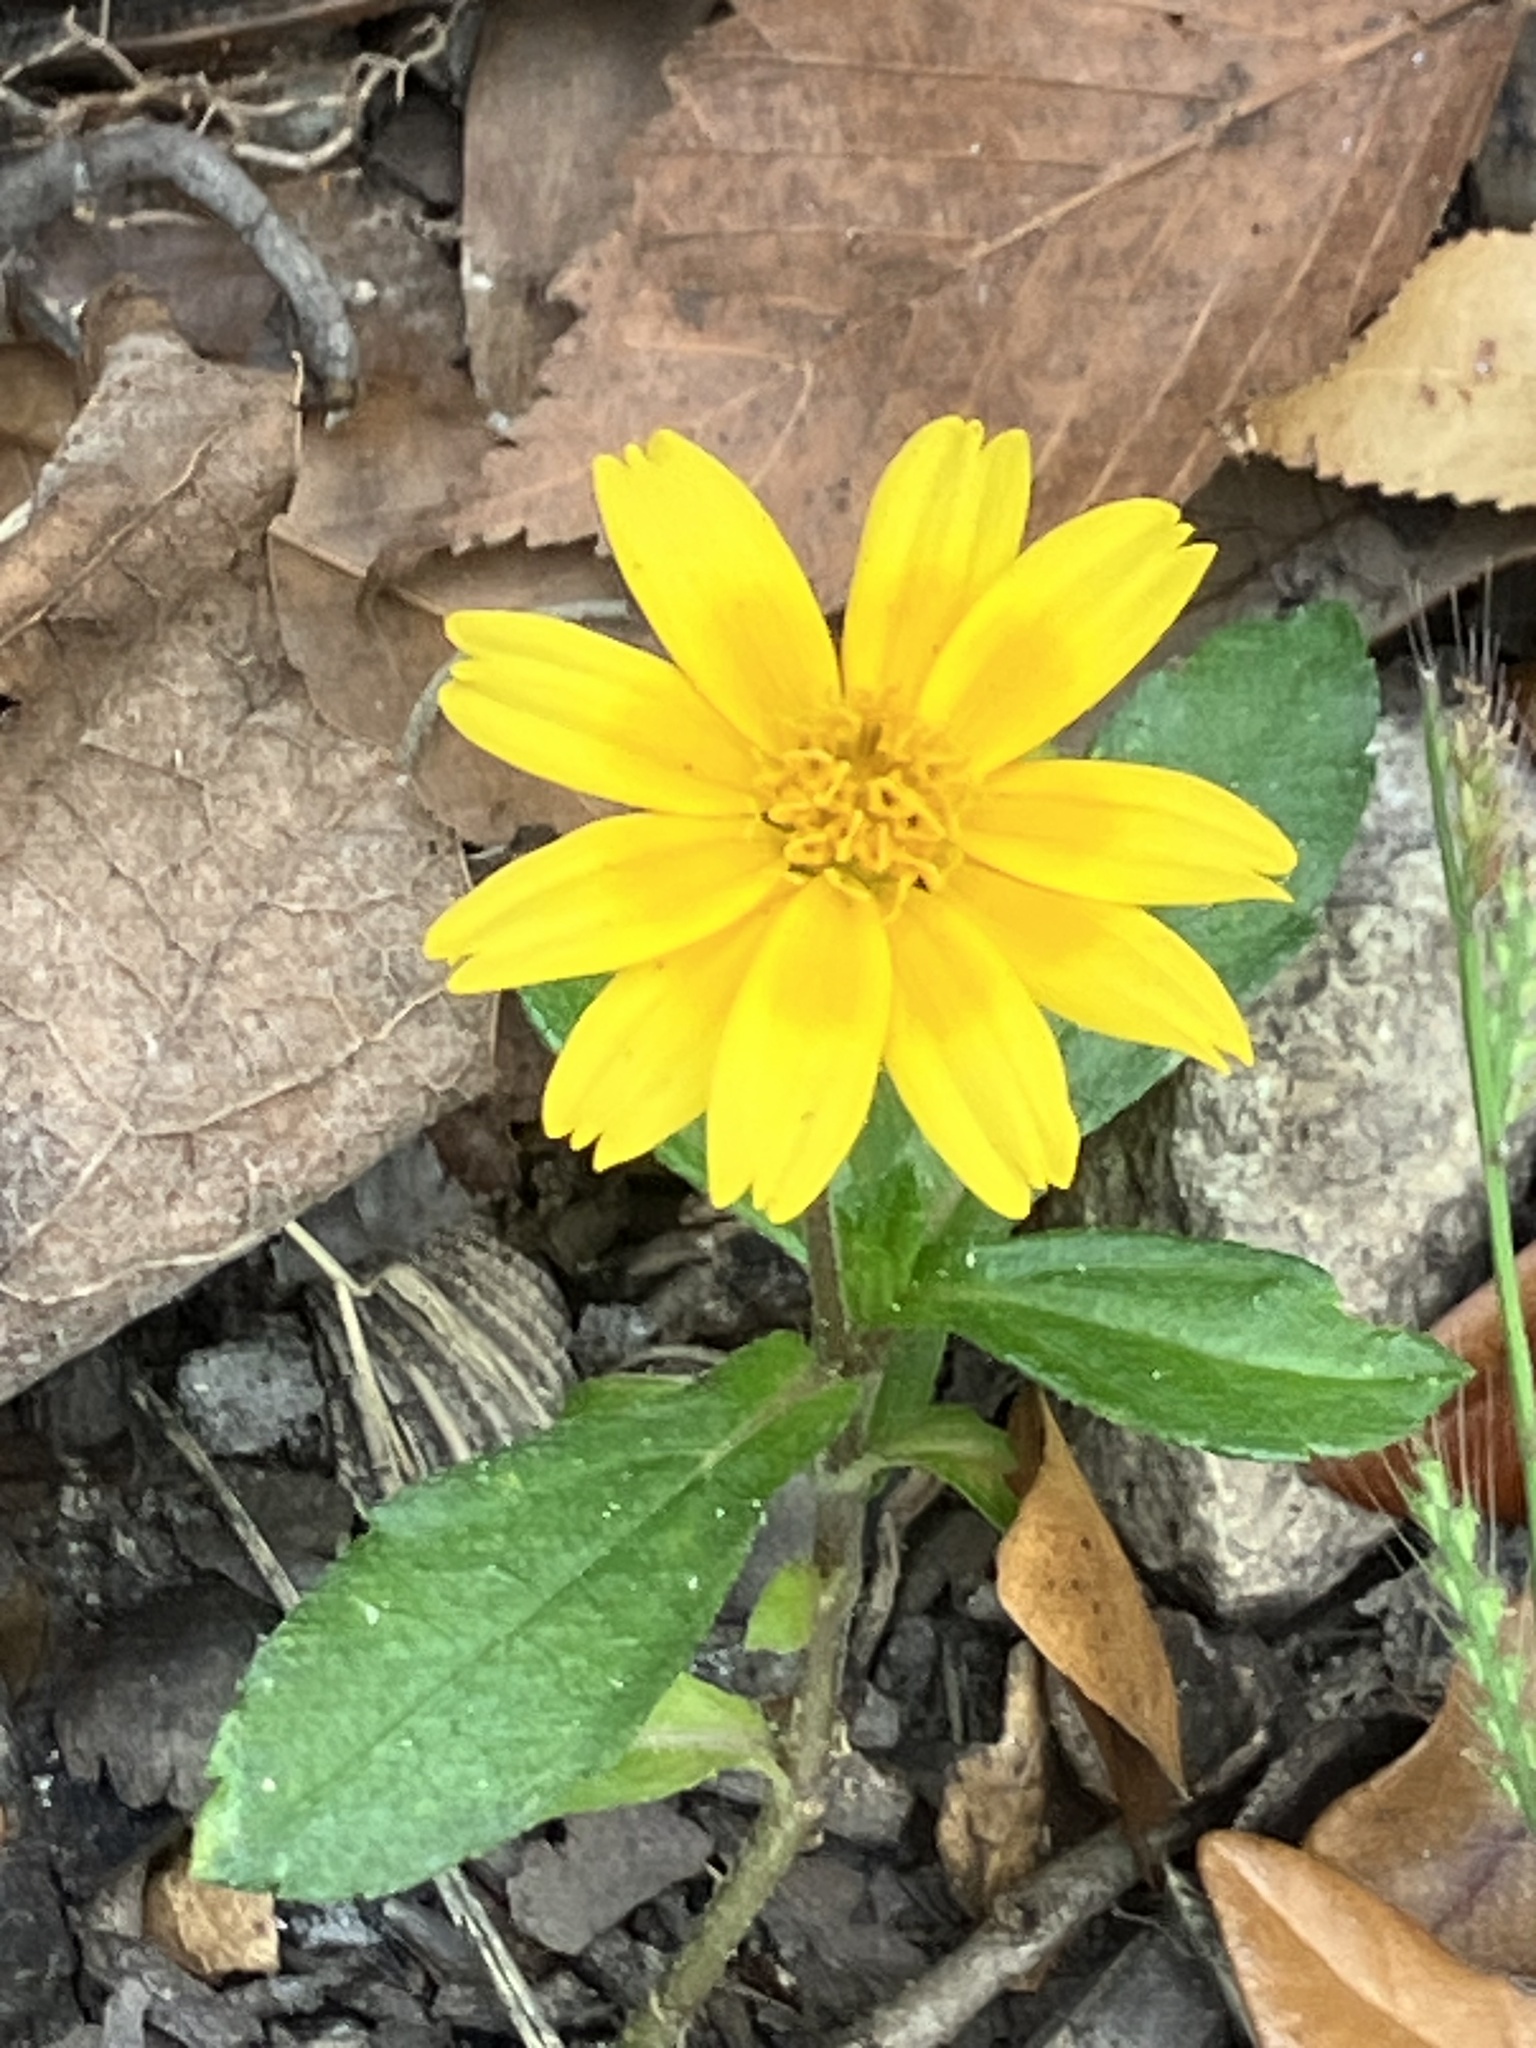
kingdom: Plantae
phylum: Tracheophyta
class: Magnoliopsida
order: Asterales
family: Asteraceae
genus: Sphagneticola
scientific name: Sphagneticola trilobata
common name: Bay biscayne creeping-oxeye
